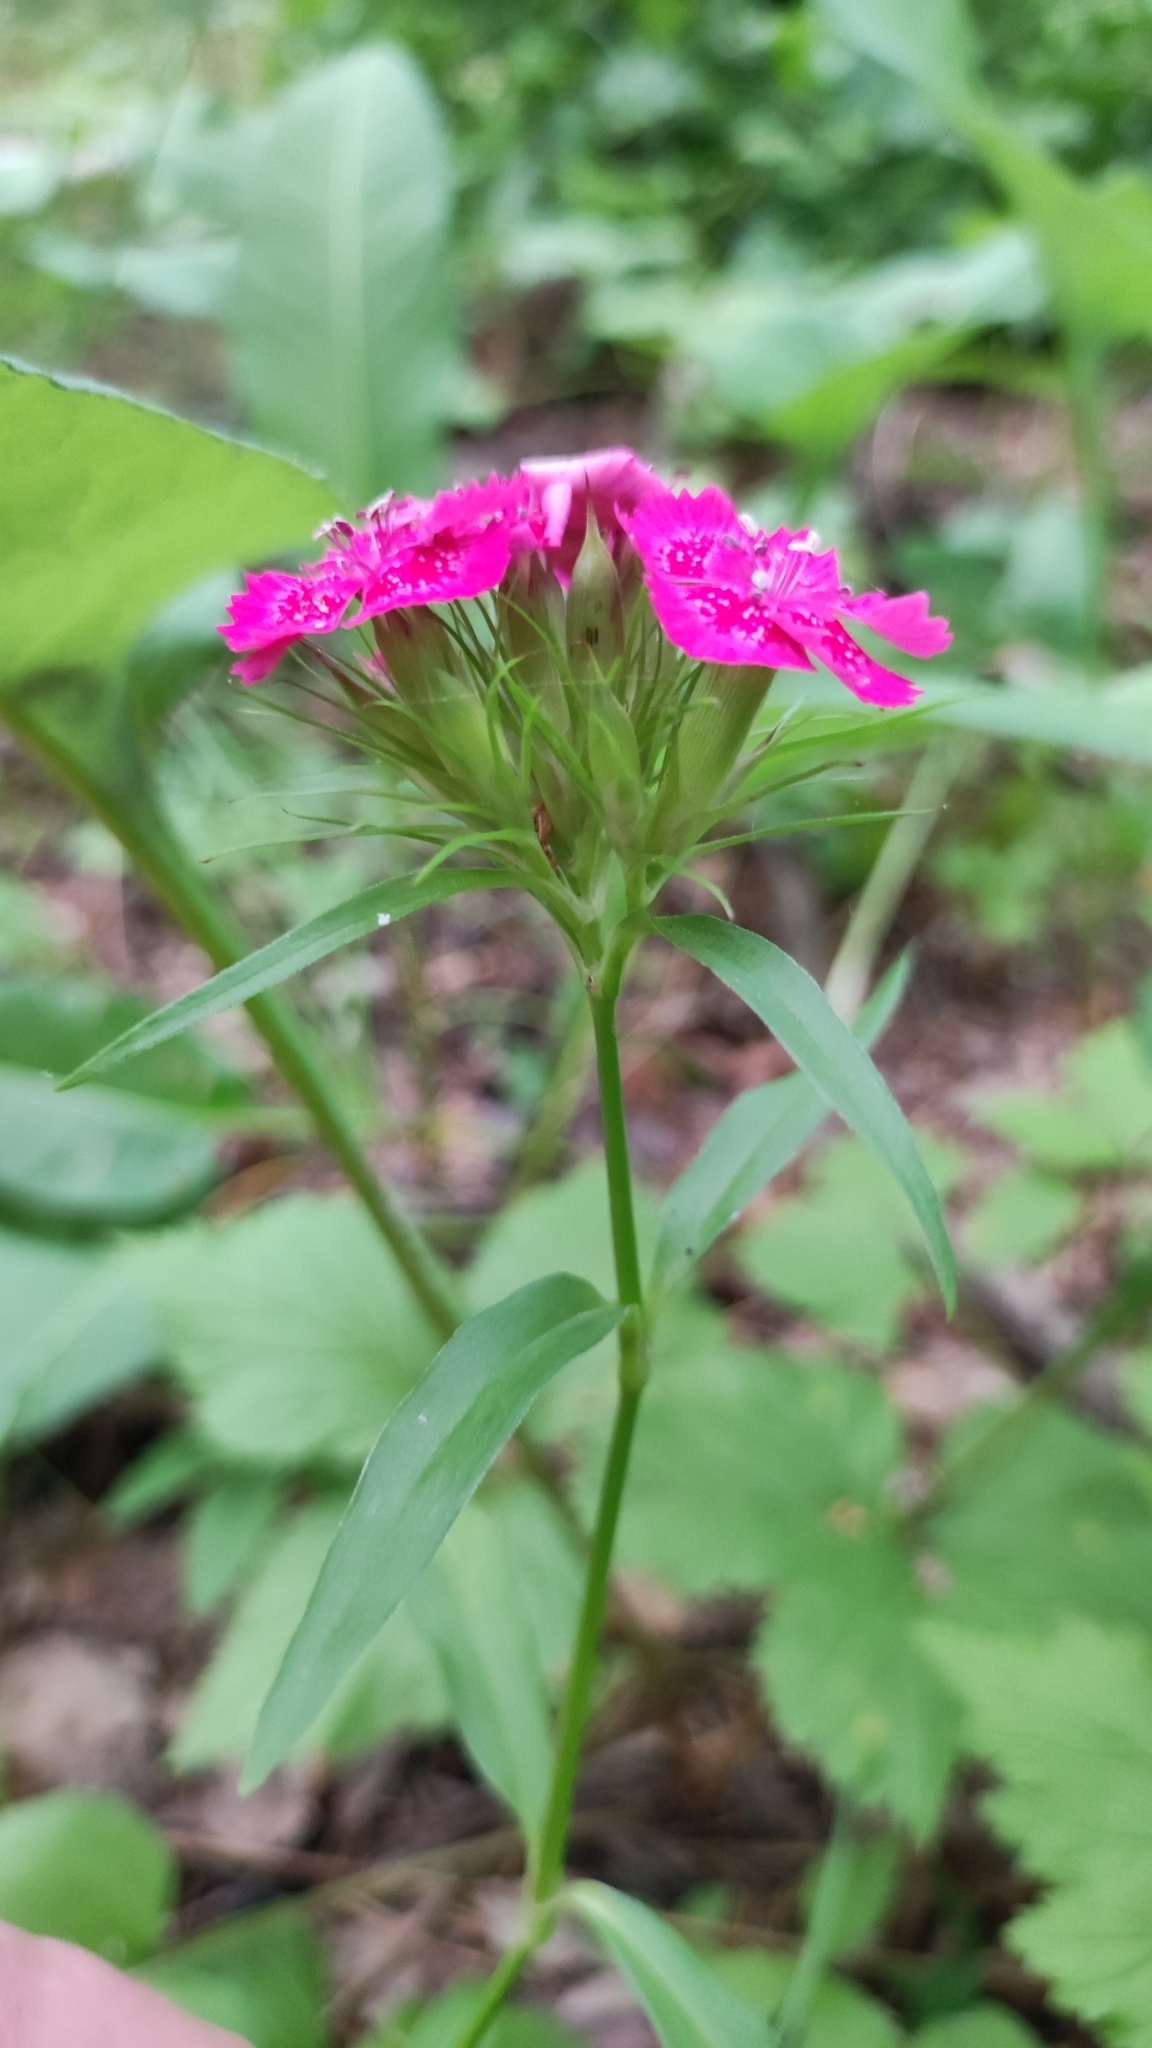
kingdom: Plantae
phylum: Tracheophyta
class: Magnoliopsida
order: Caryophyllales
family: Caryophyllaceae
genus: Dianthus
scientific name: Dianthus barbatus
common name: Sweet-william
